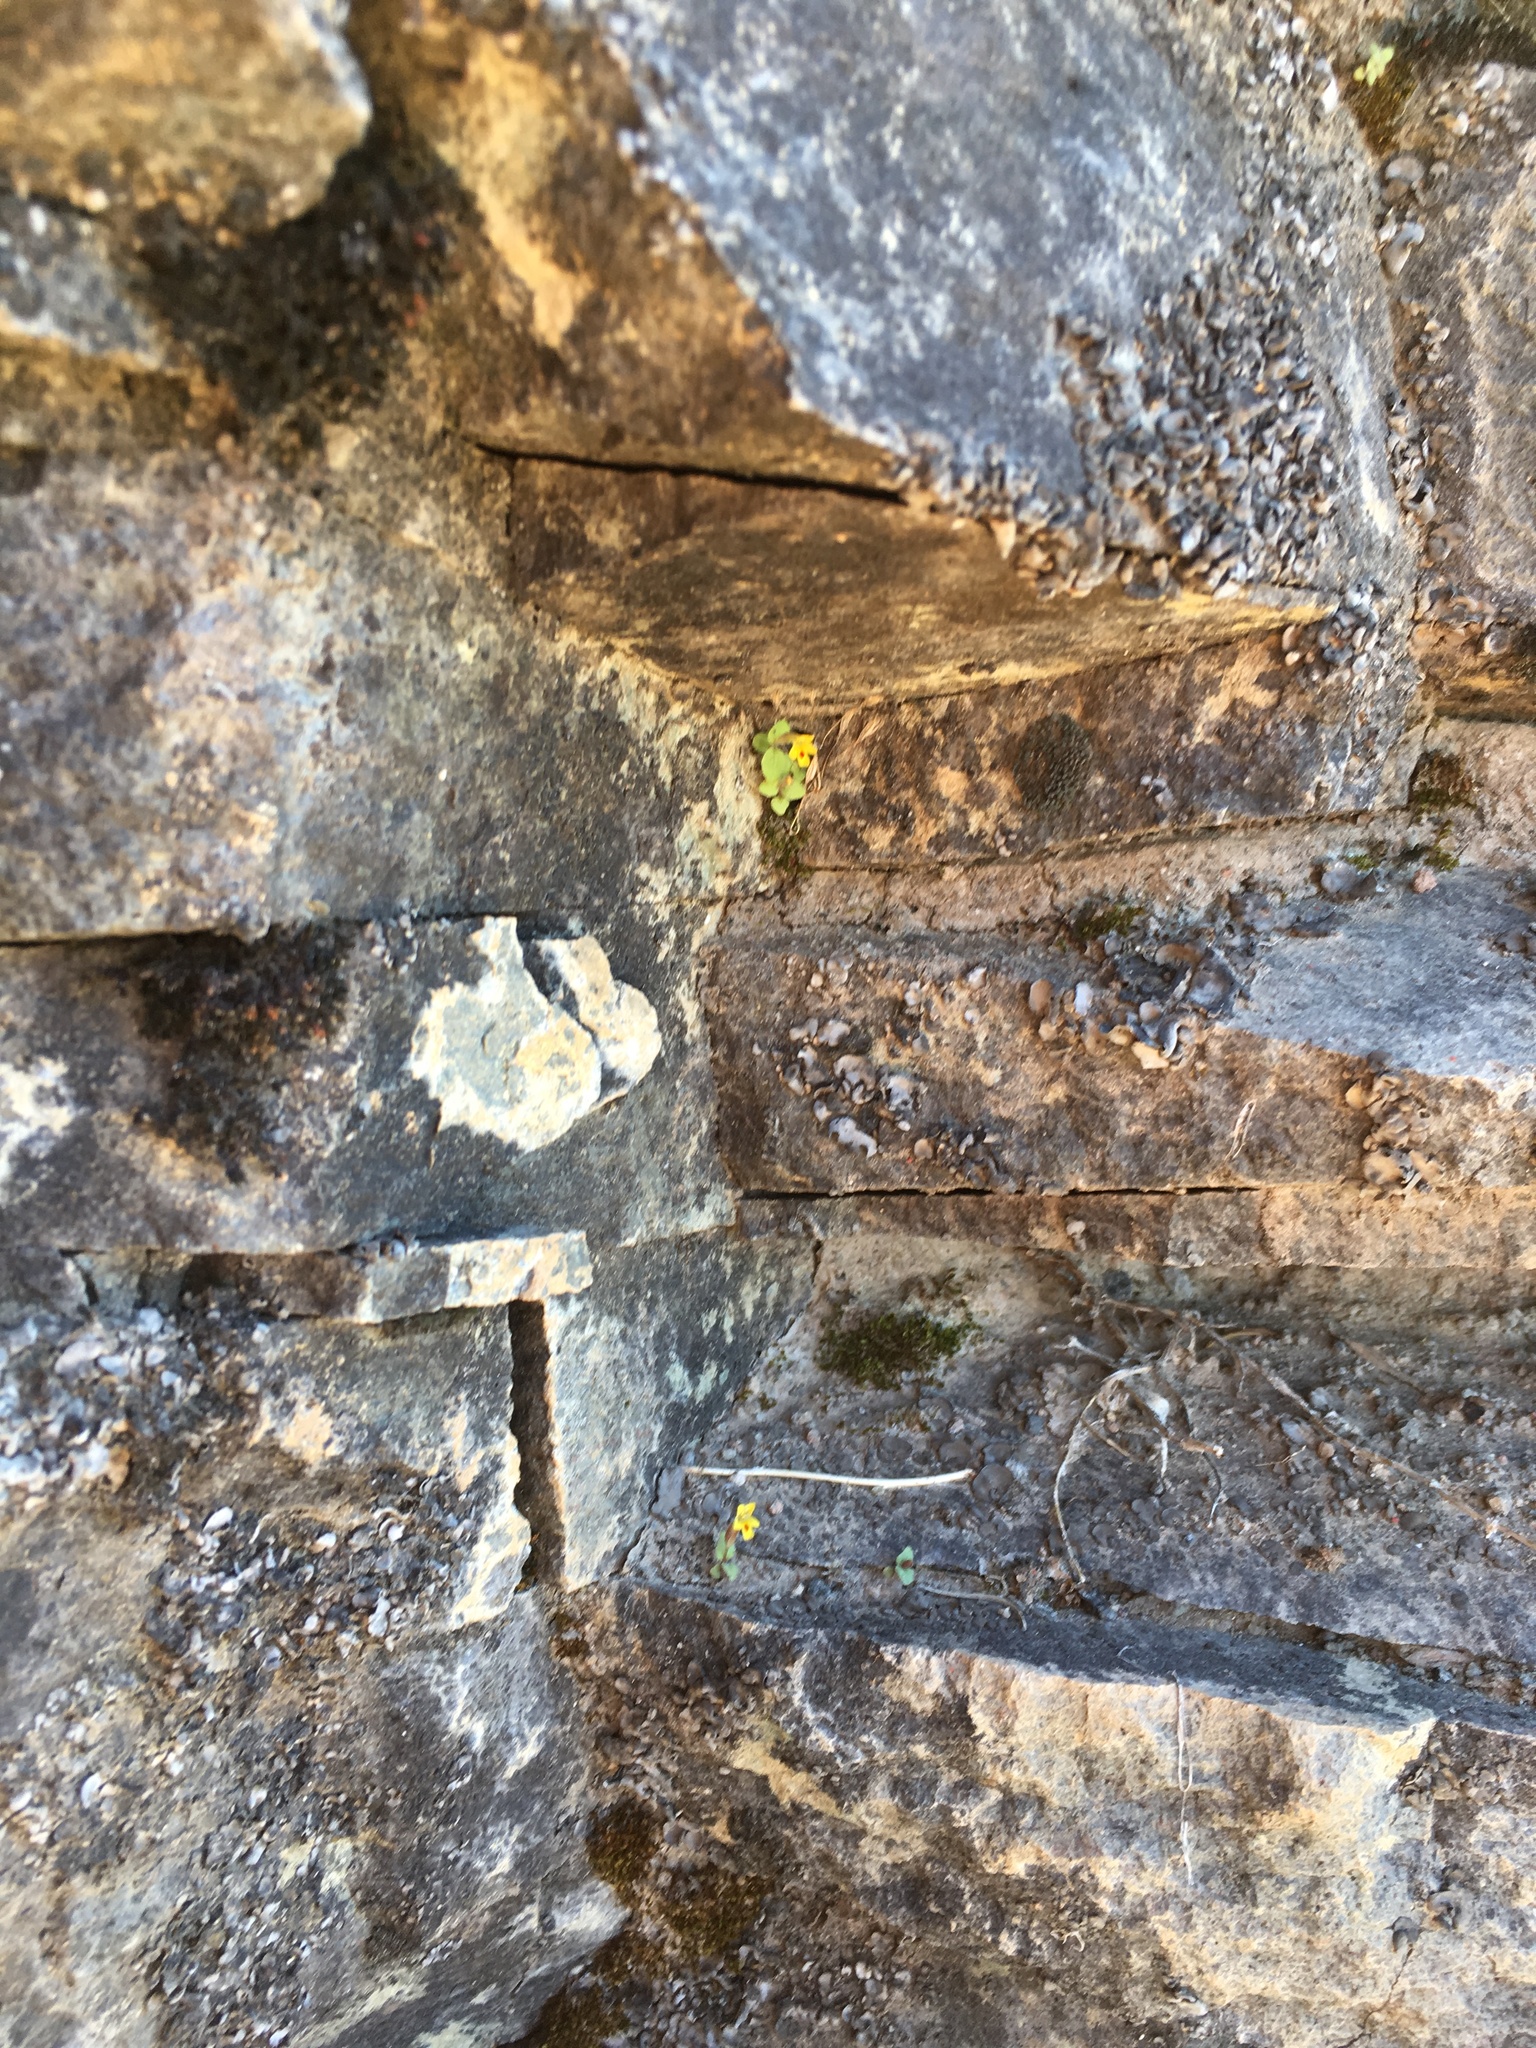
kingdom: Plantae
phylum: Tracheophyta
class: Magnoliopsida
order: Lamiales
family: Phrymaceae
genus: Erythranthe
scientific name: Erythranthe alsinoides
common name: Chickweed monkeyflower
